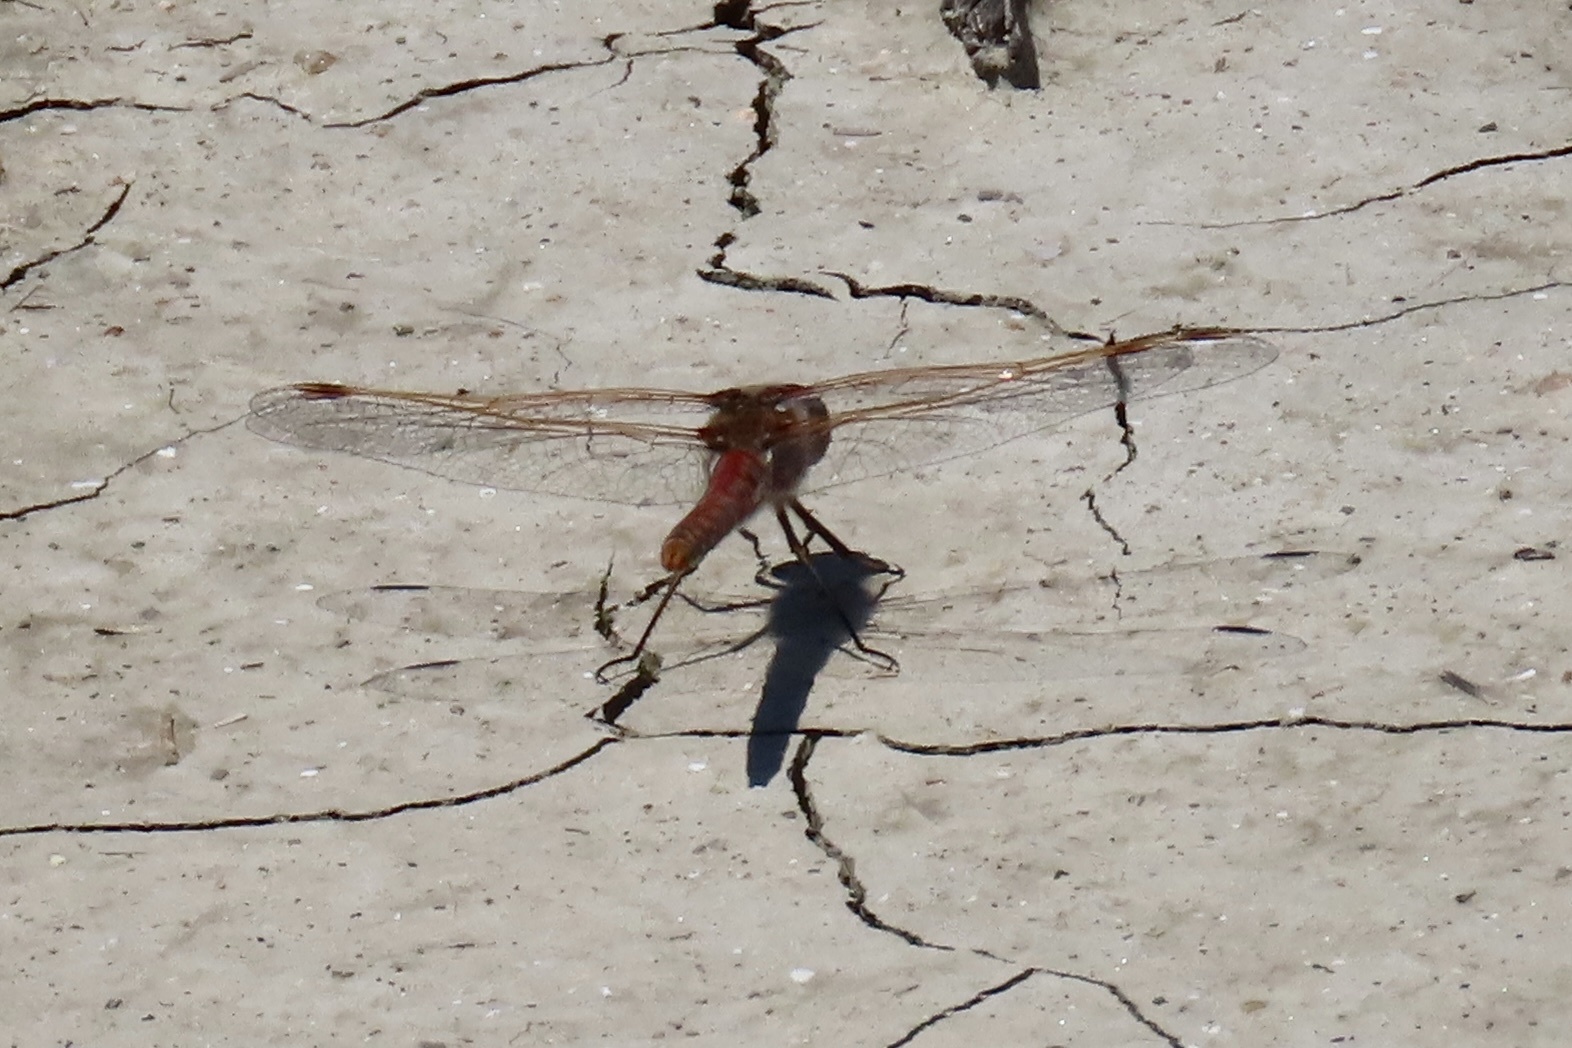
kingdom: Animalia
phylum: Arthropoda
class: Insecta
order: Odonata
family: Libellulidae
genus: Sympetrum
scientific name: Sympetrum corruptum
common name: Variegated meadowhawk
